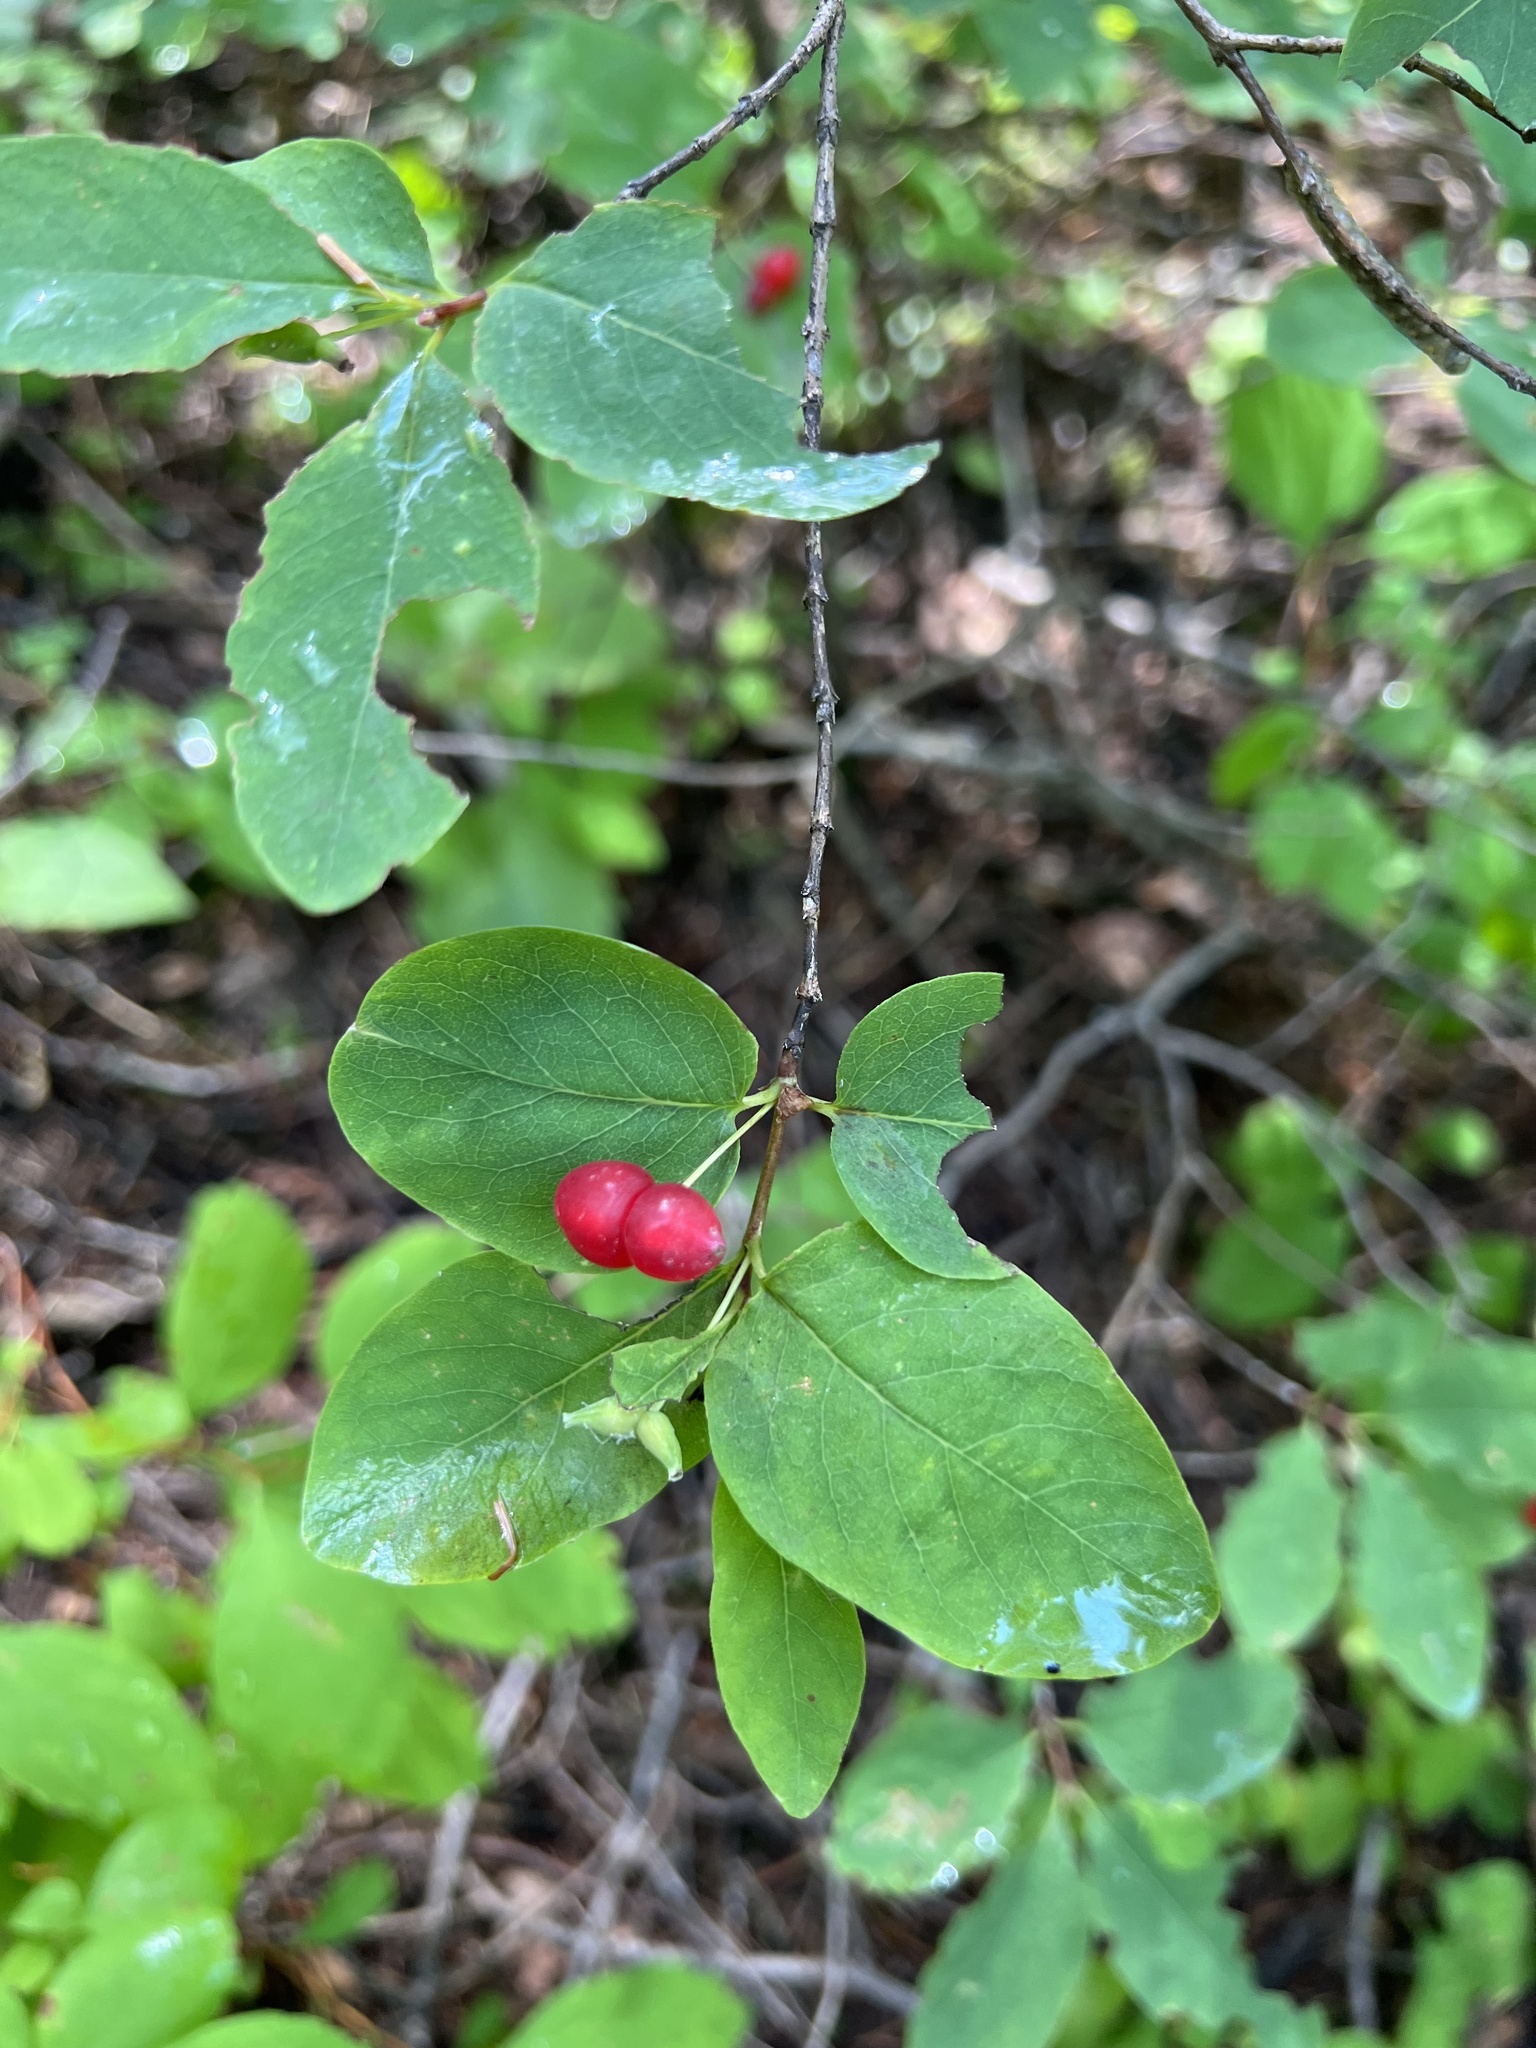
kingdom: Plantae
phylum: Tracheophyta
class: Magnoliopsida
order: Dipsacales
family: Caprifoliaceae
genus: Lonicera
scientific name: Lonicera utahensis
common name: Utah honeysuckle
